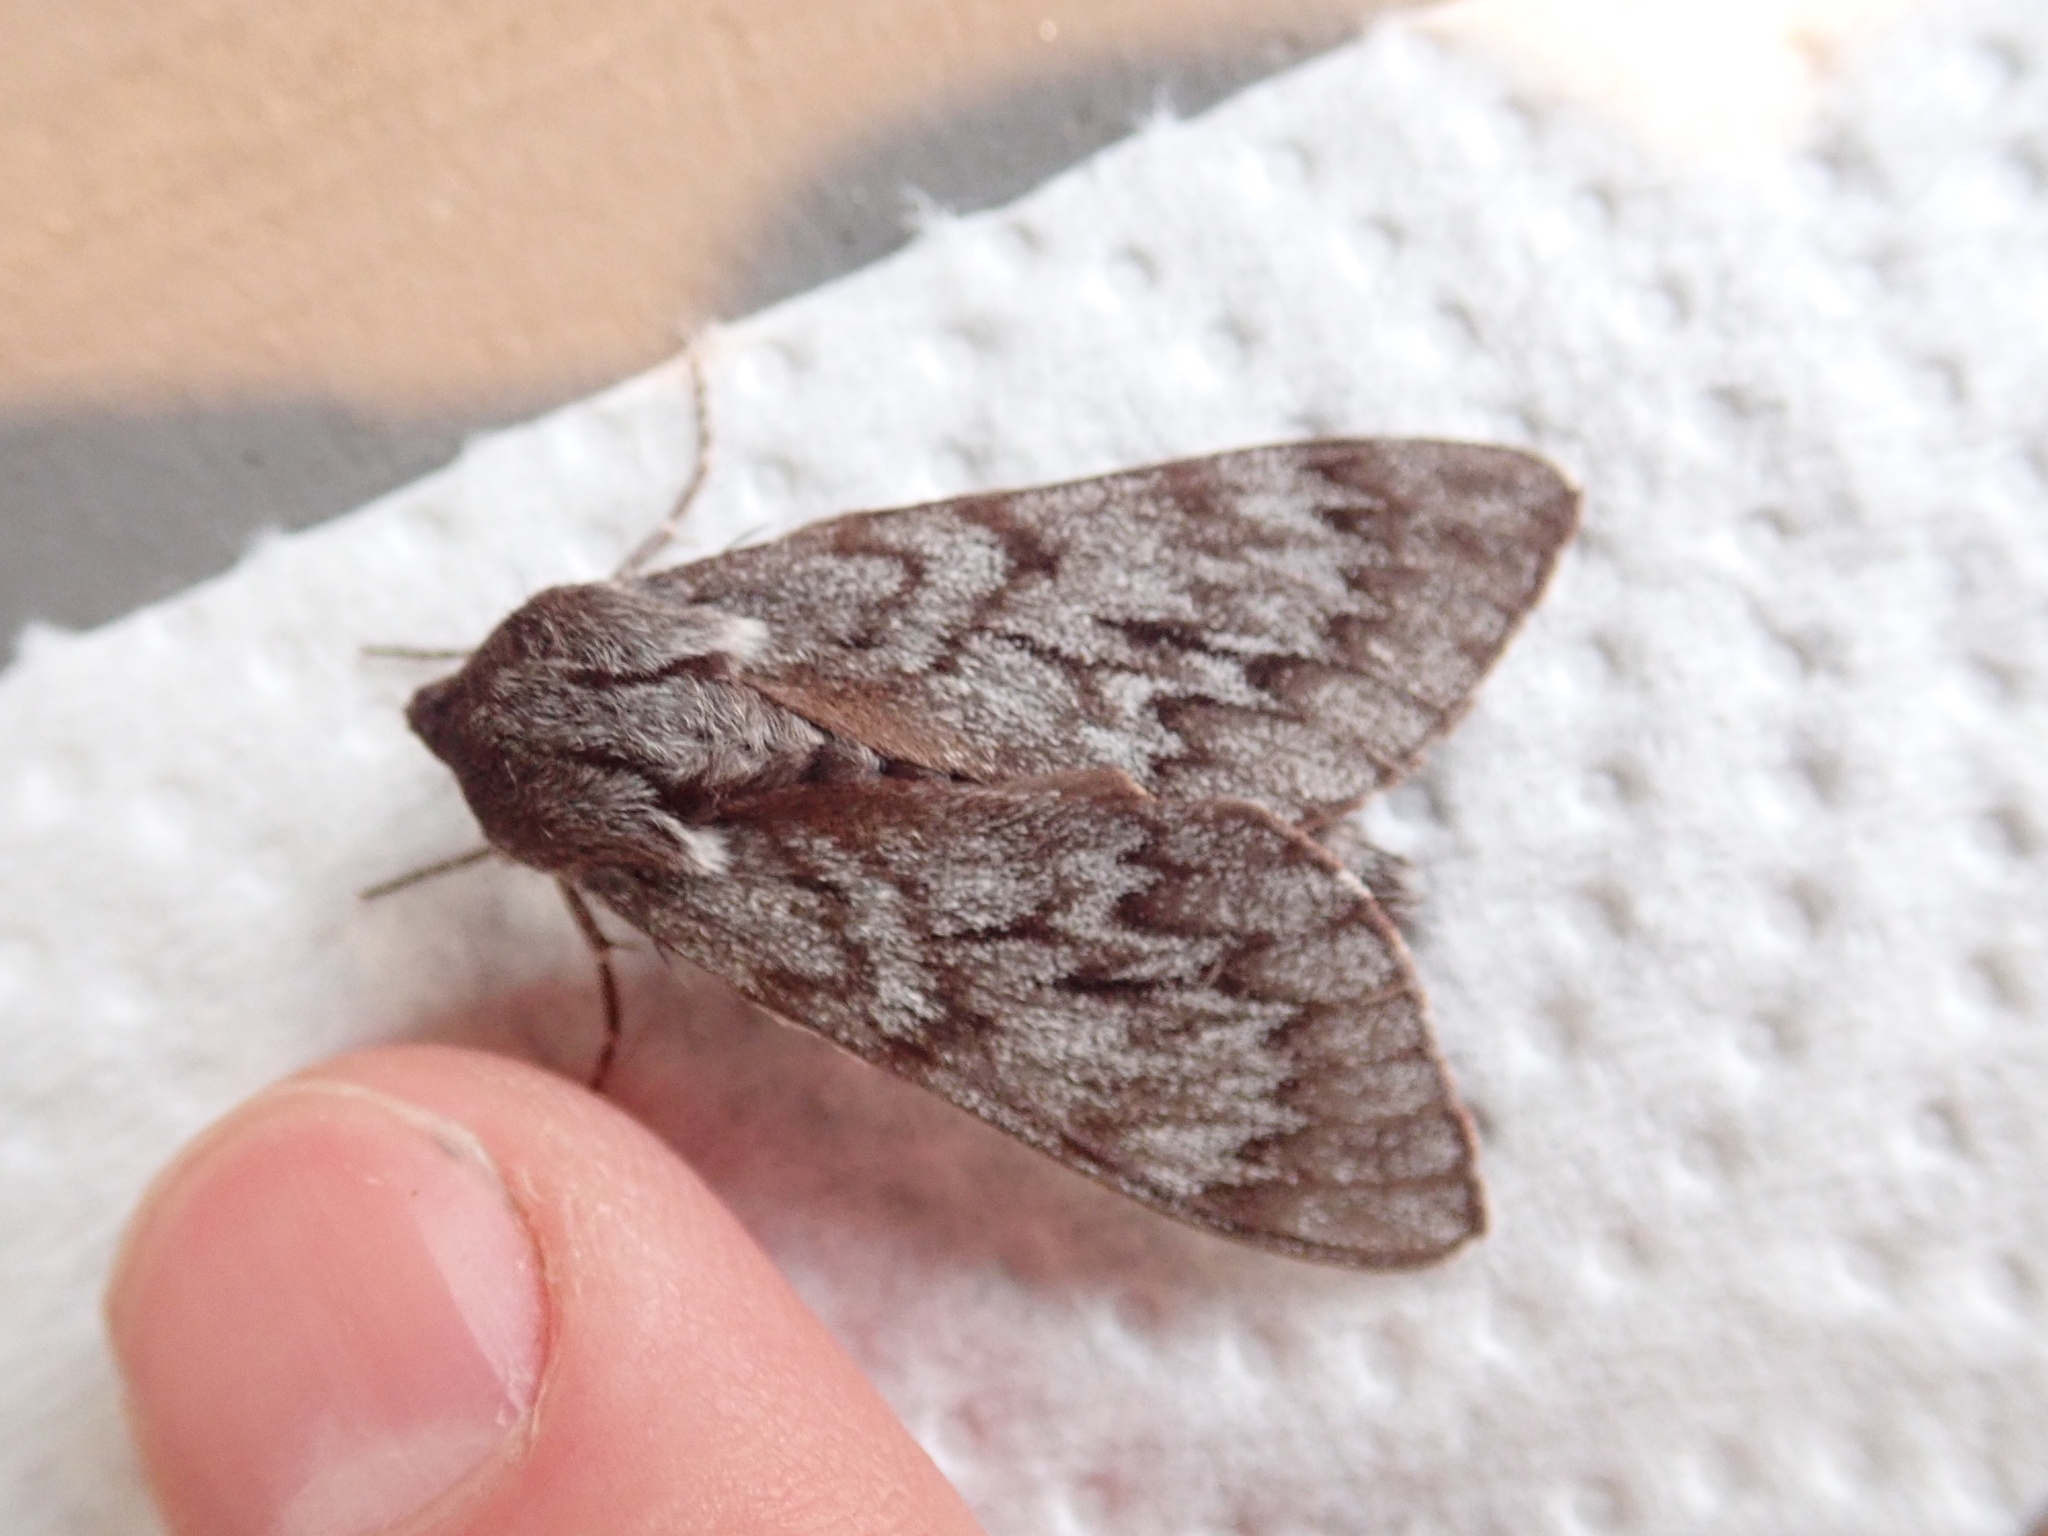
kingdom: Animalia
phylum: Arthropoda
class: Insecta
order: Lepidoptera
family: Sphingidae
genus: Lapara
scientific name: Lapara bombycoides
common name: Northern pine sphinx
